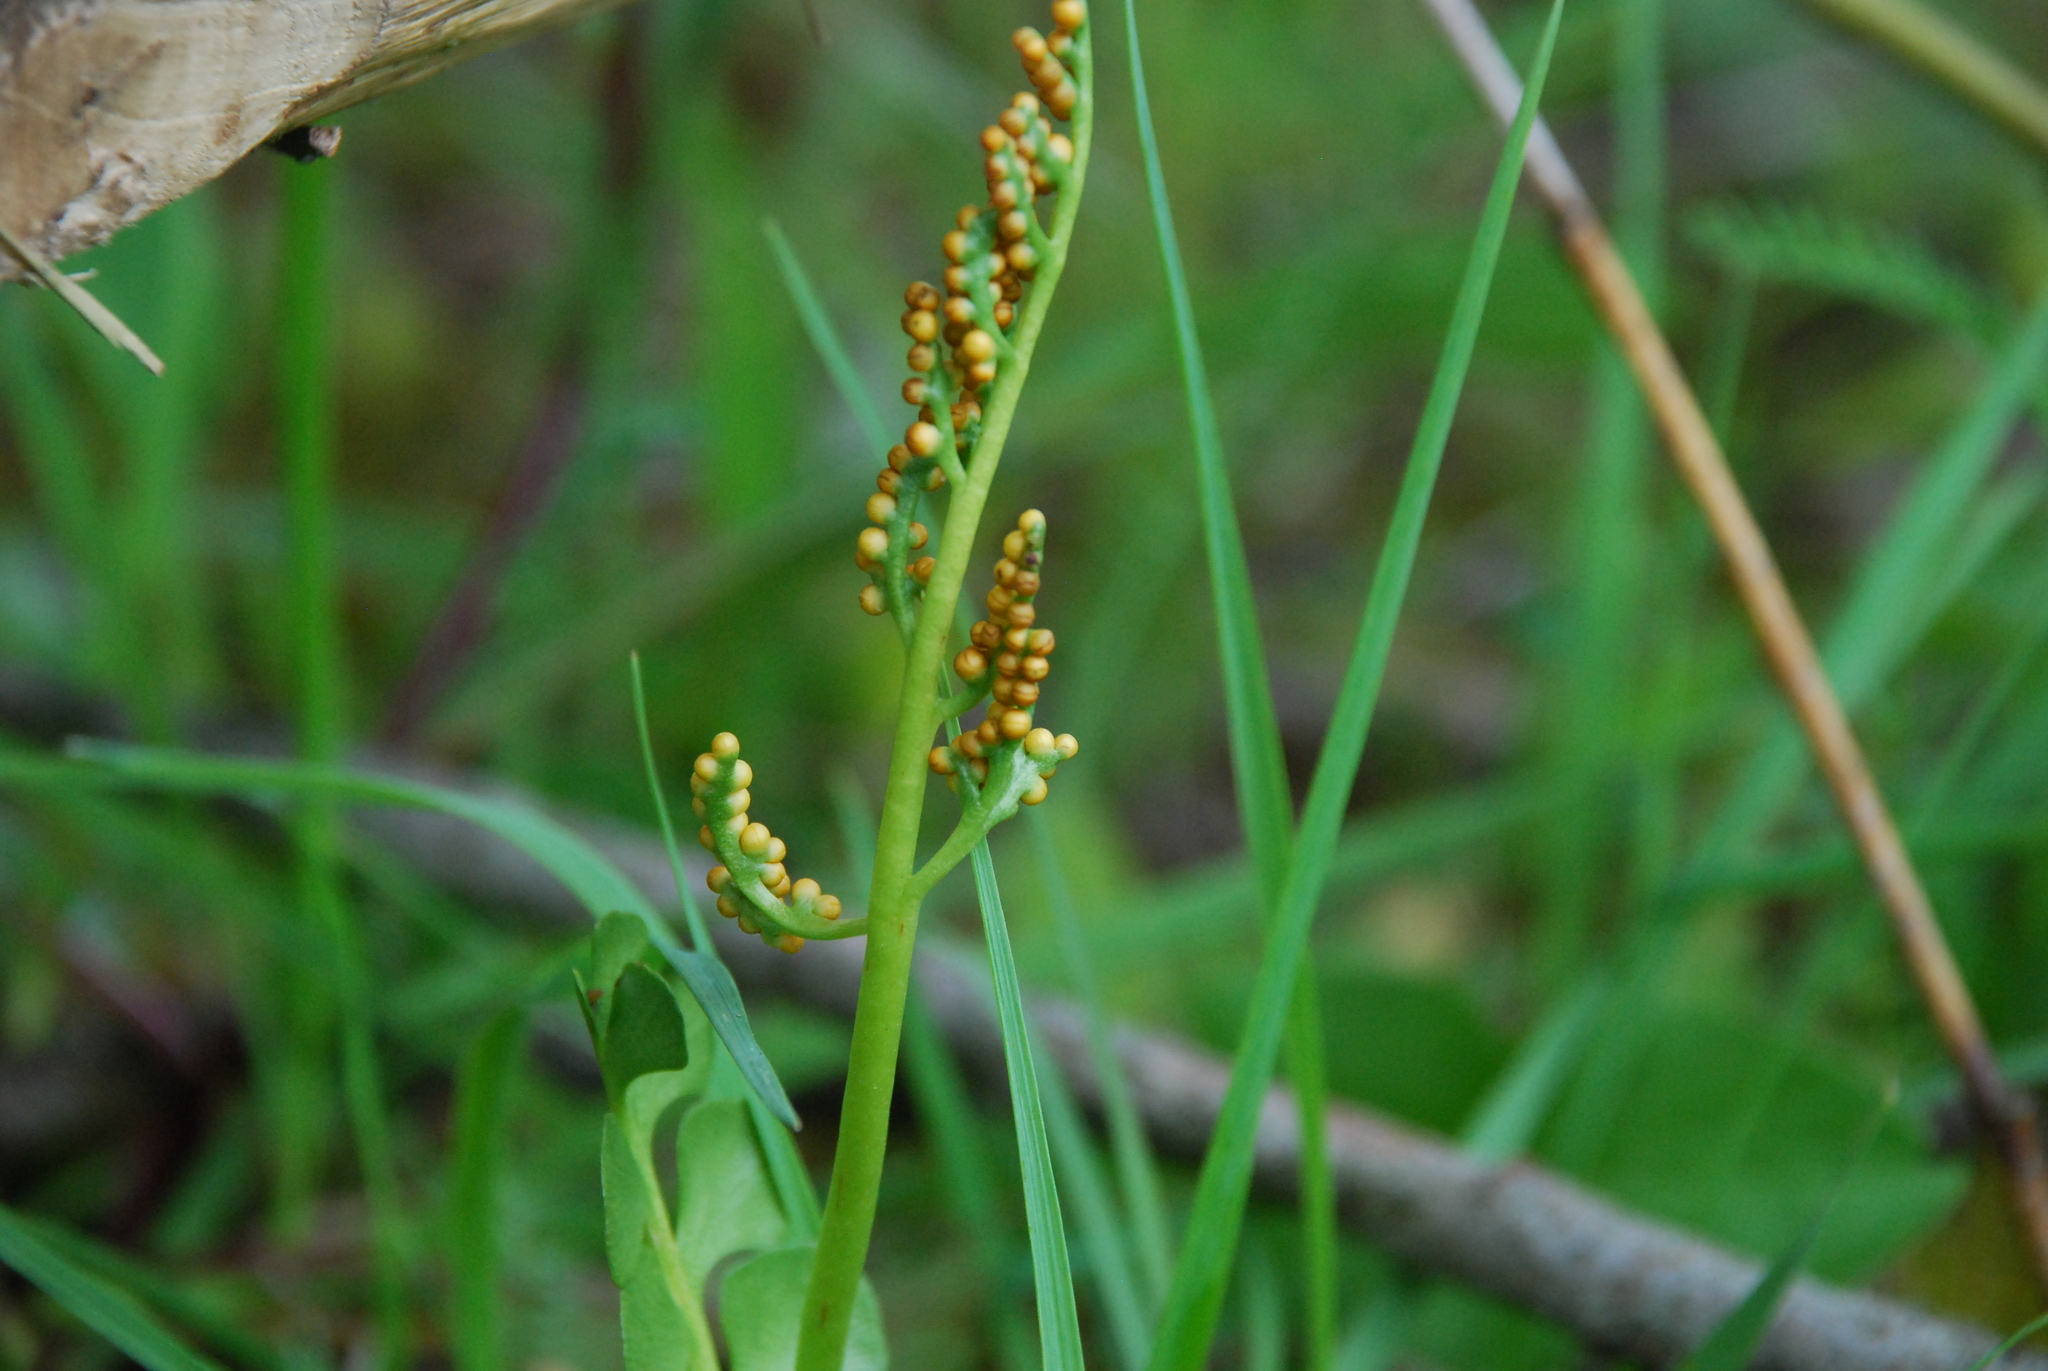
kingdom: Plantae
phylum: Tracheophyta
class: Polypodiopsida
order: Ophioglossales
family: Ophioglossaceae
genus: Botrychium
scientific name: Botrychium lunaria
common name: Moonwort
